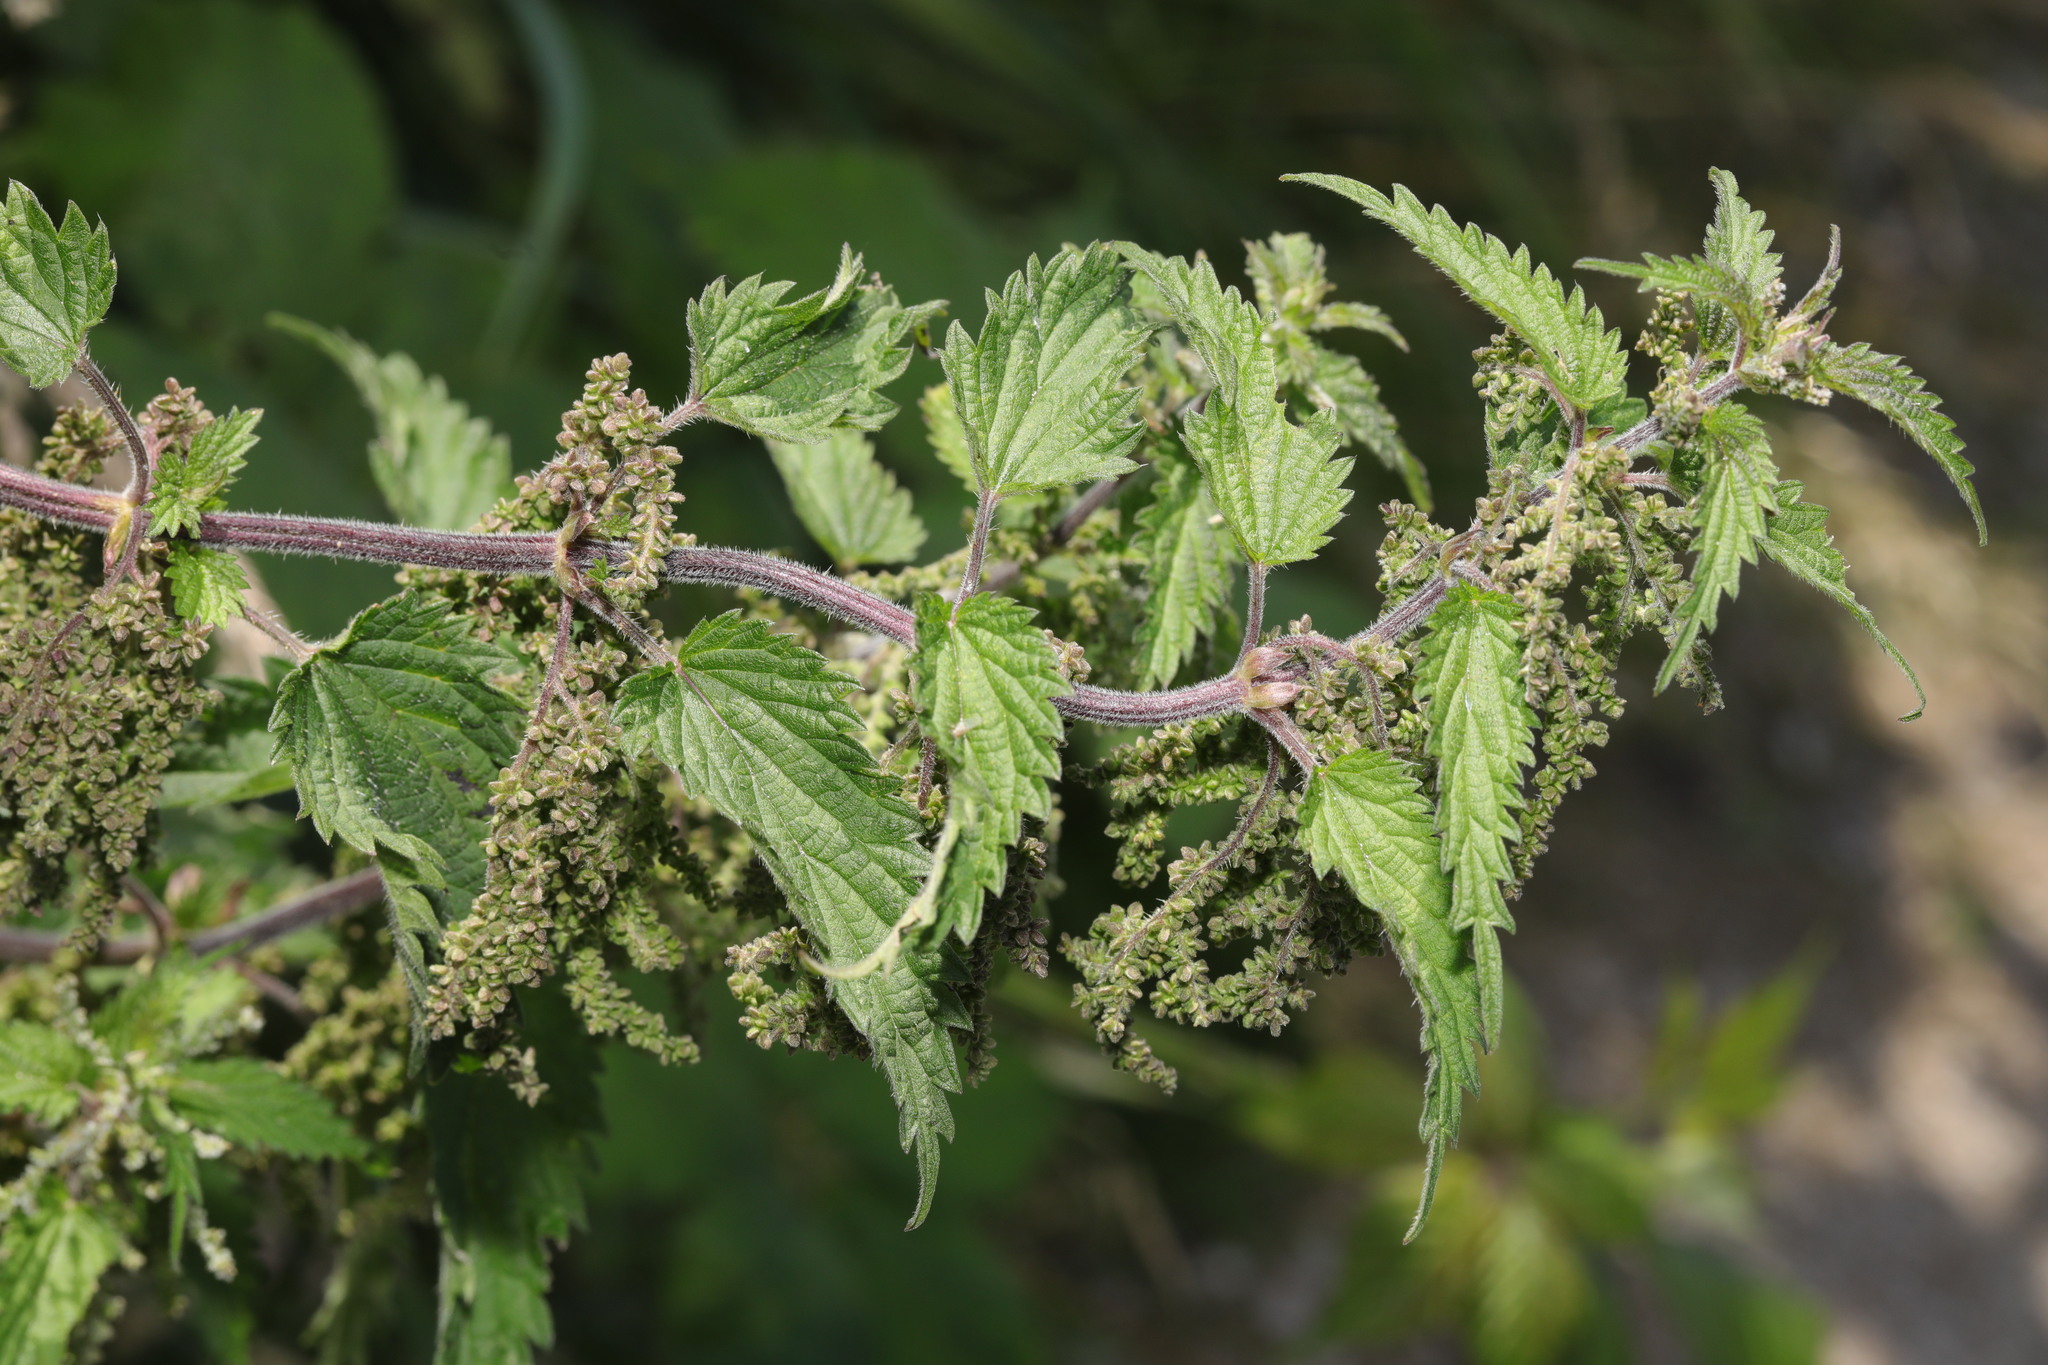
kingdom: Plantae
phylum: Tracheophyta
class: Magnoliopsida
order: Rosales
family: Urticaceae
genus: Urtica
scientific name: Urtica dioica
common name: Common nettle
